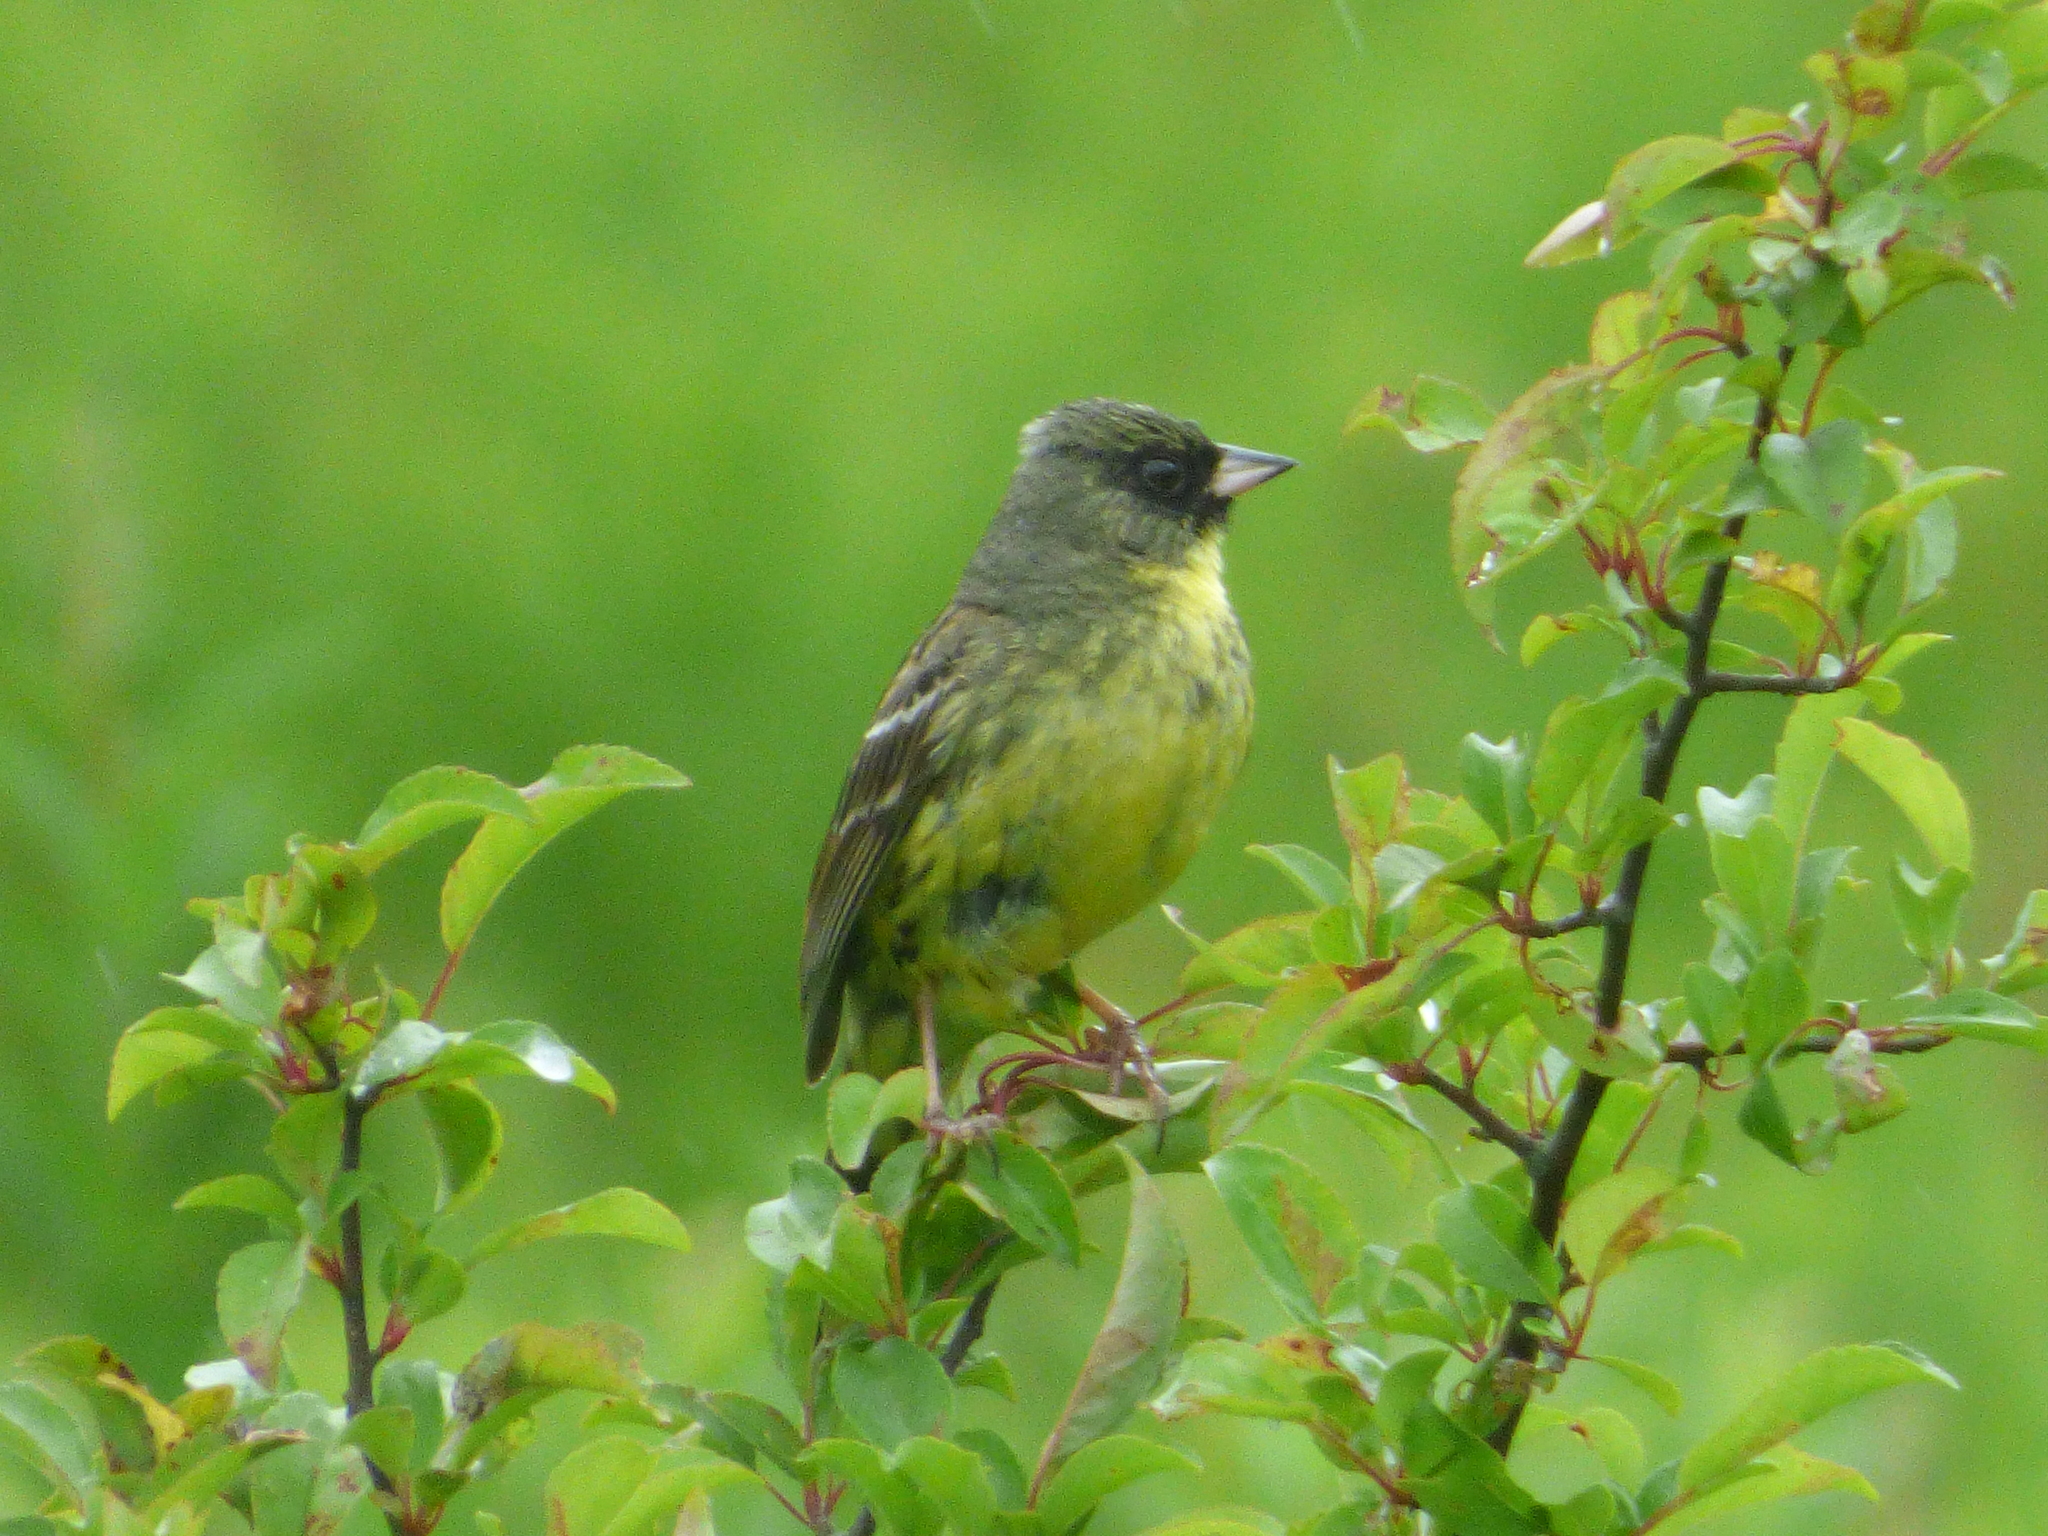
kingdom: Animalia
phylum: Chordata
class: Aves
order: Passeriformes
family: Emberizidae
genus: Emberiza
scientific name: Emberiza personata
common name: Masked bunting
